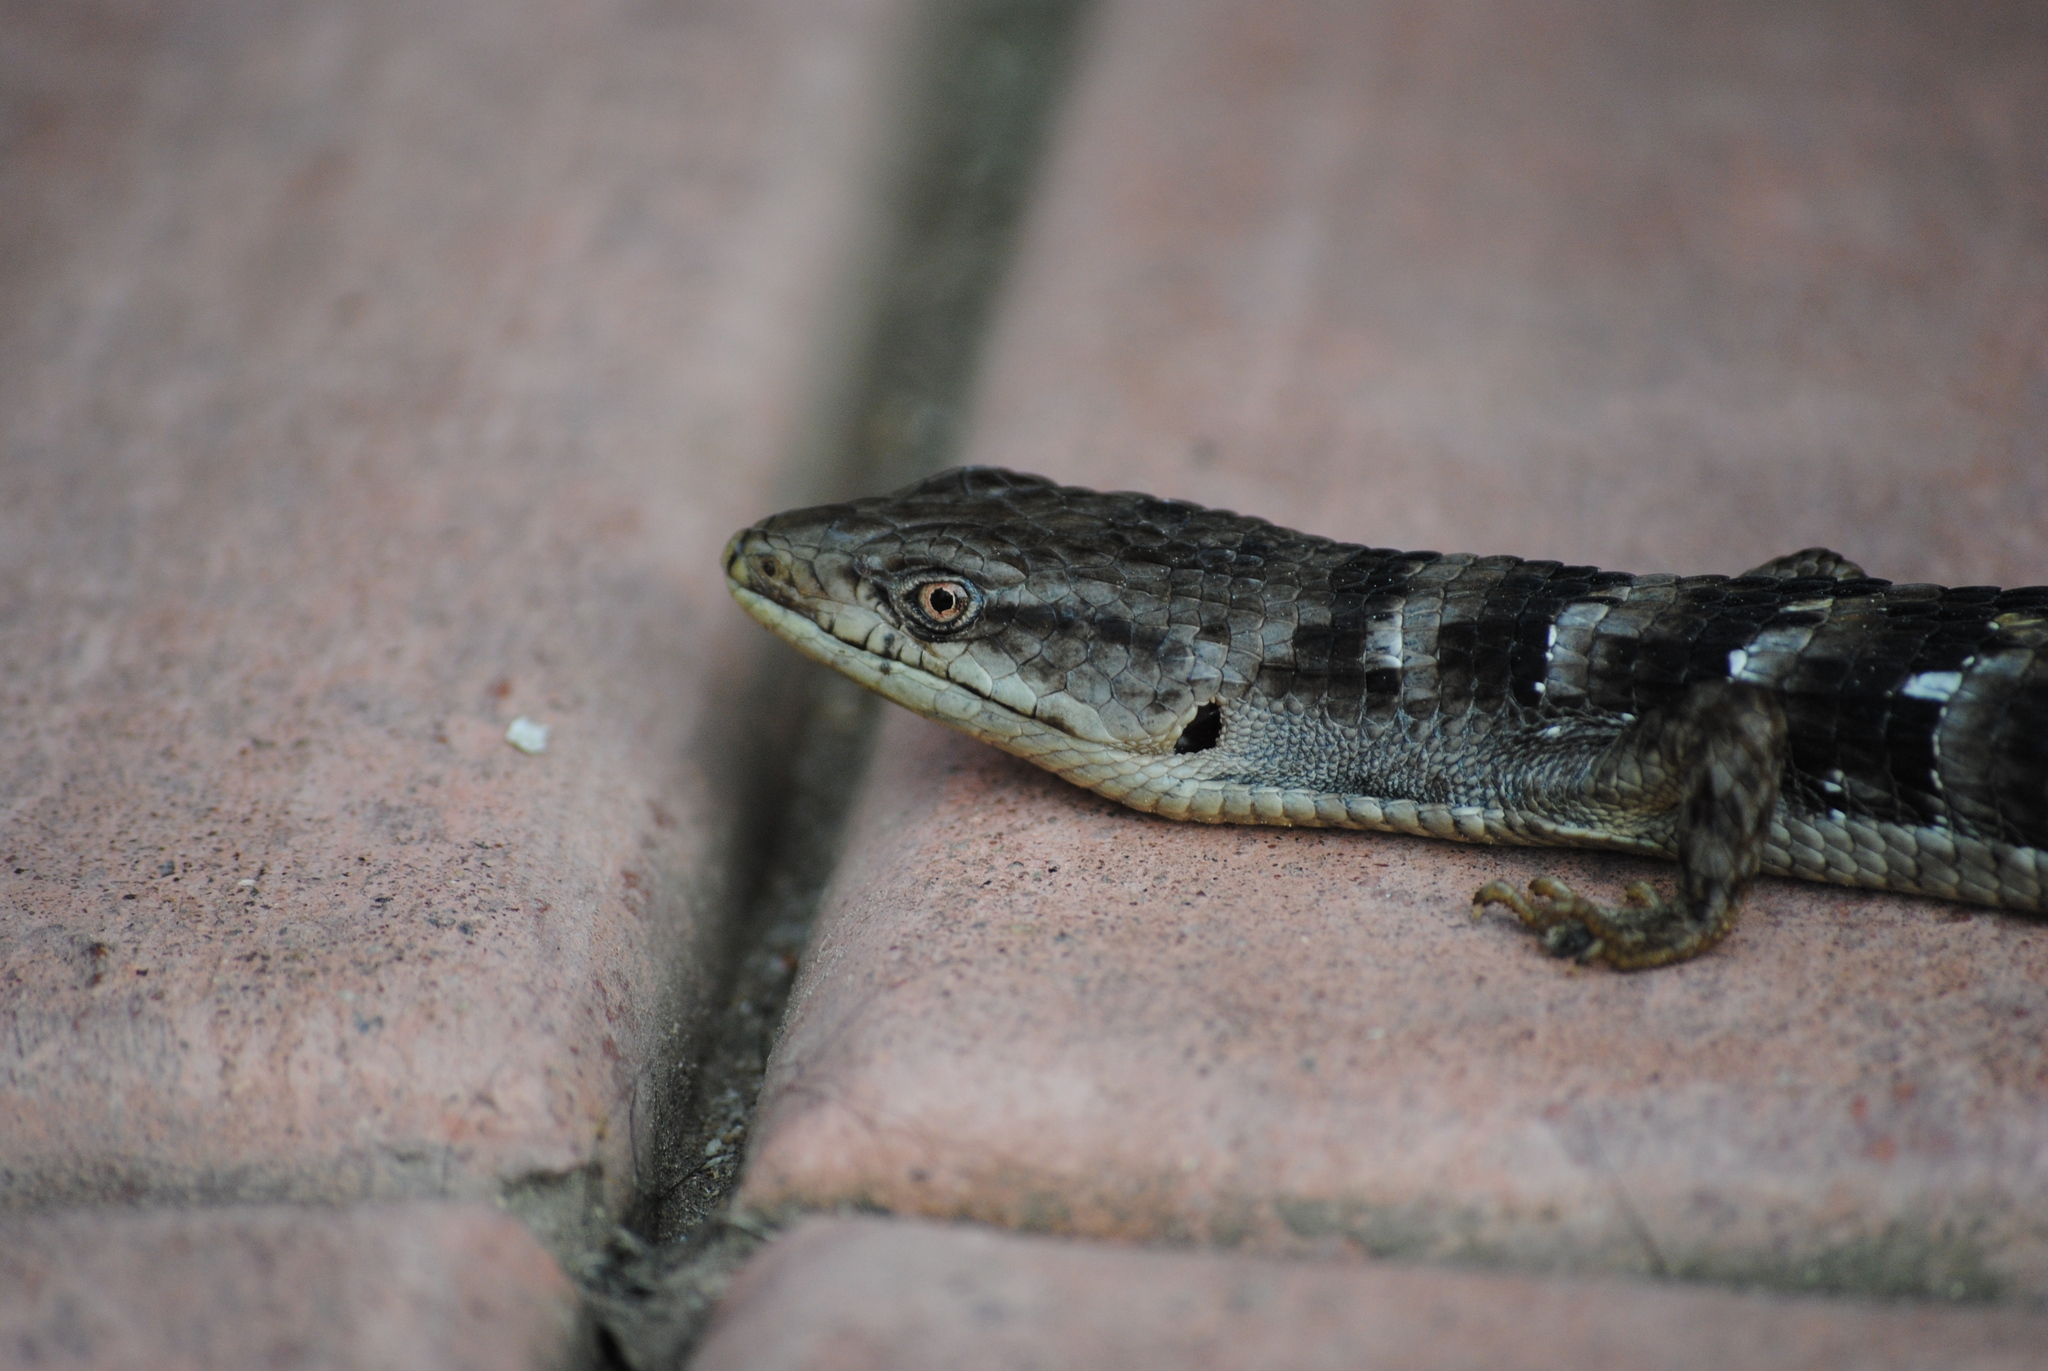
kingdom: Animalia
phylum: Chordata
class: Squamata
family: Anguidae
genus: Elgaria
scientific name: Elgaria multicarinata
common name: Southern alligator lizard
